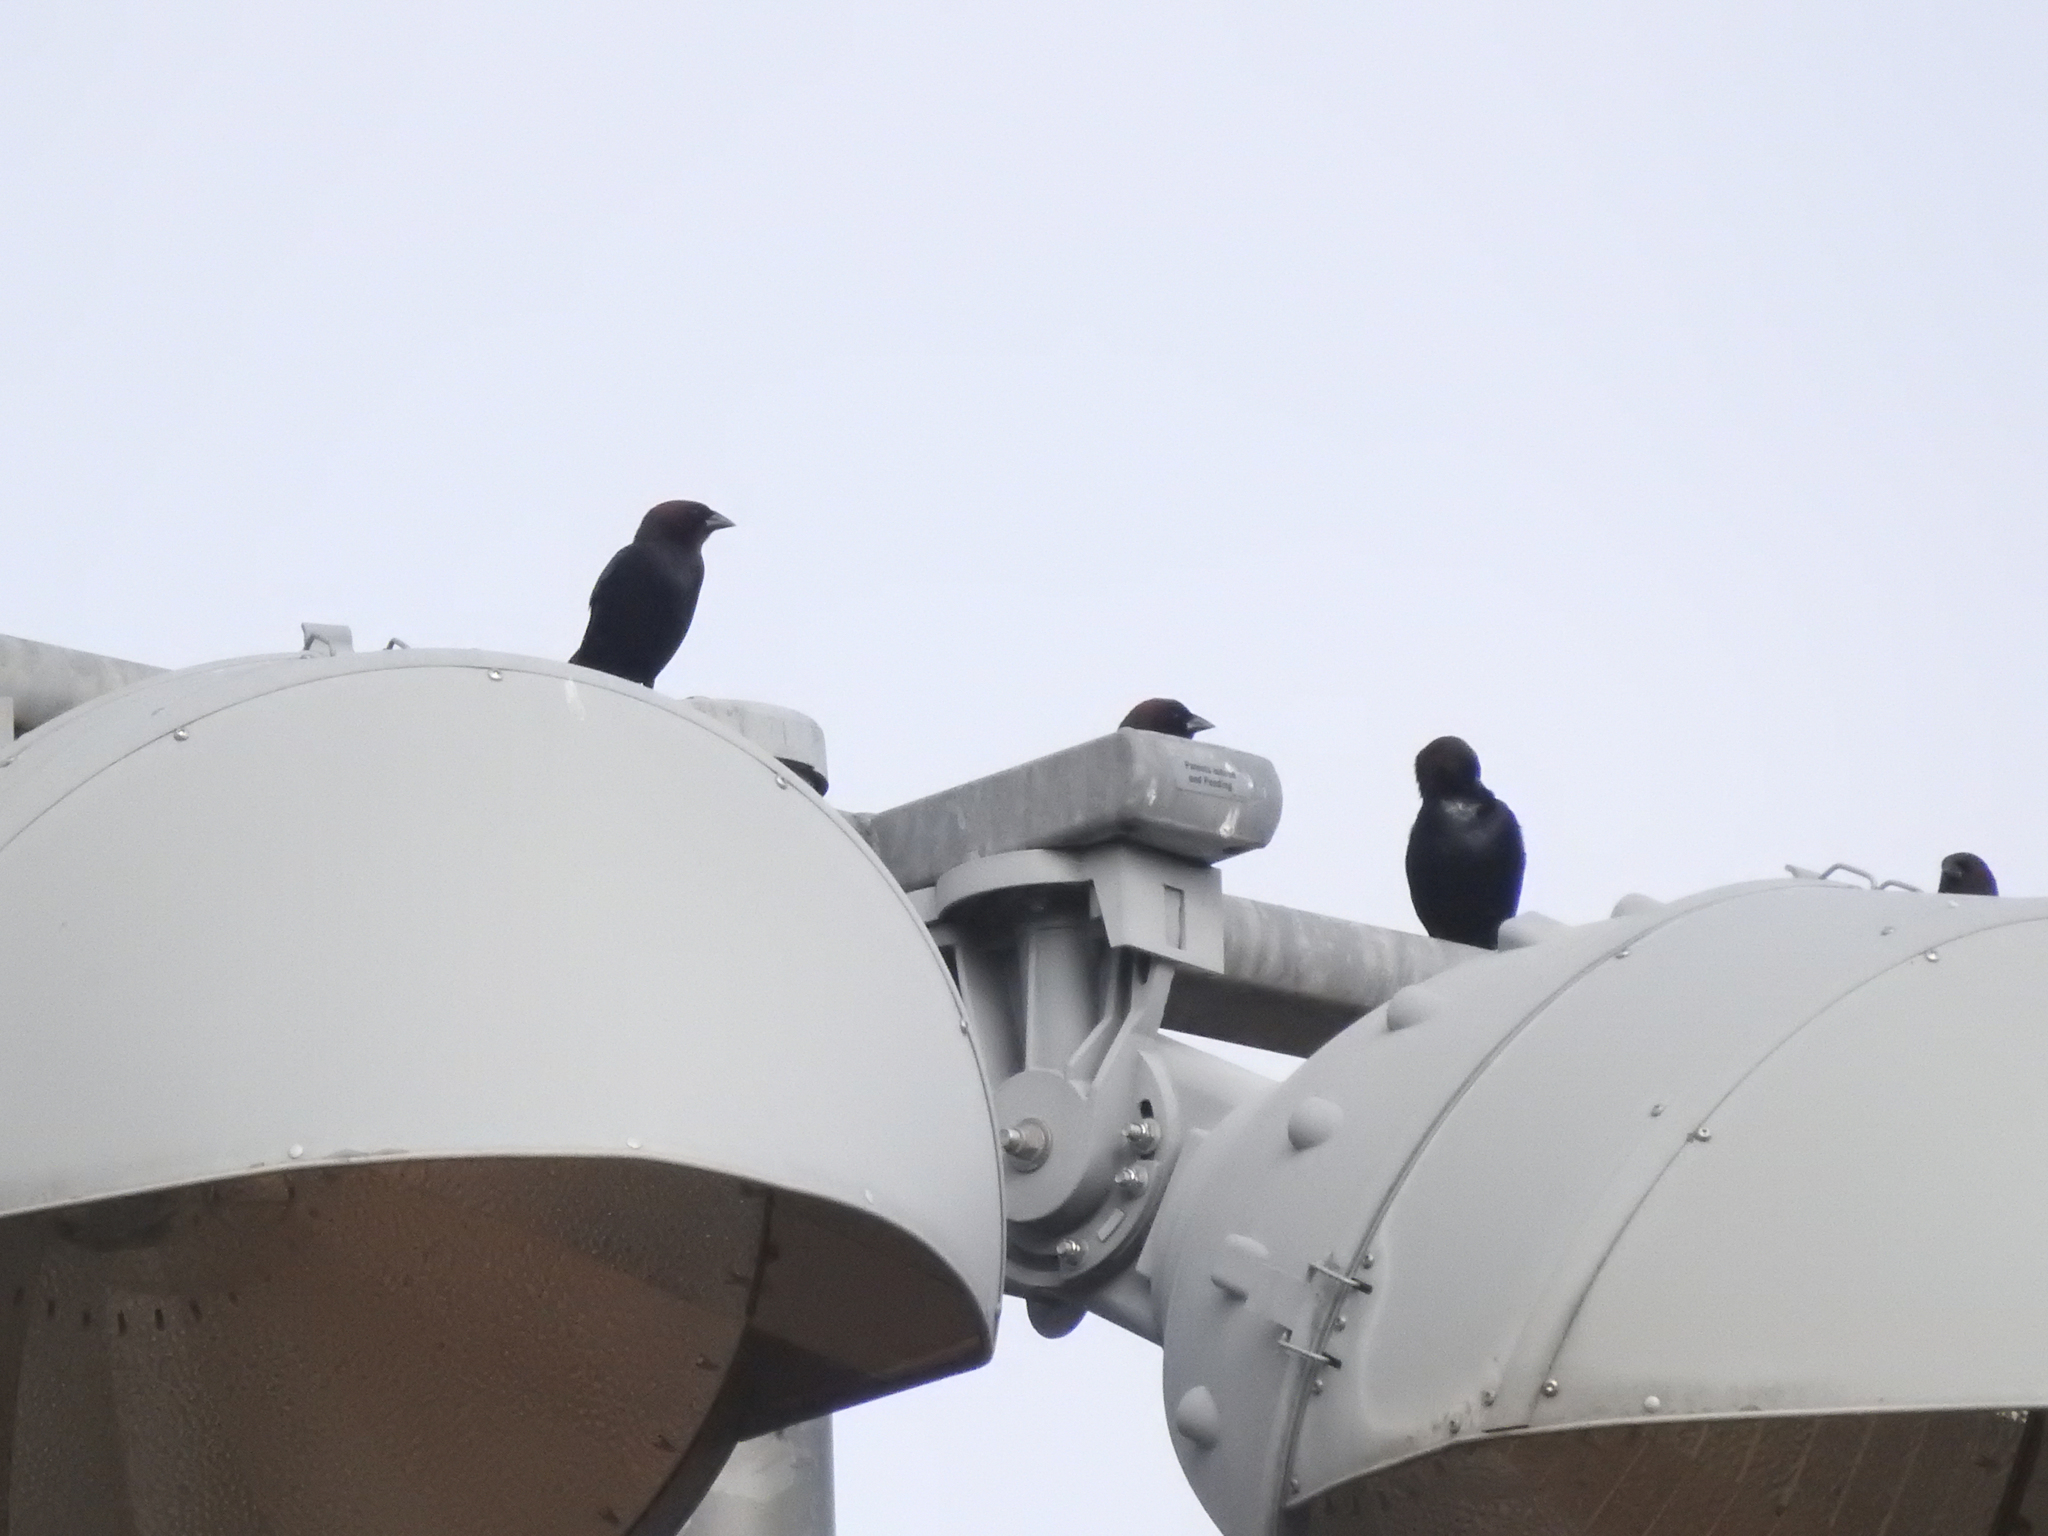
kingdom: Animalia
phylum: Chordata
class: Aves
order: Passeriformes
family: Icteridae
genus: Molothrus
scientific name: Molothrus ater
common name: Brown-headed cowbird
